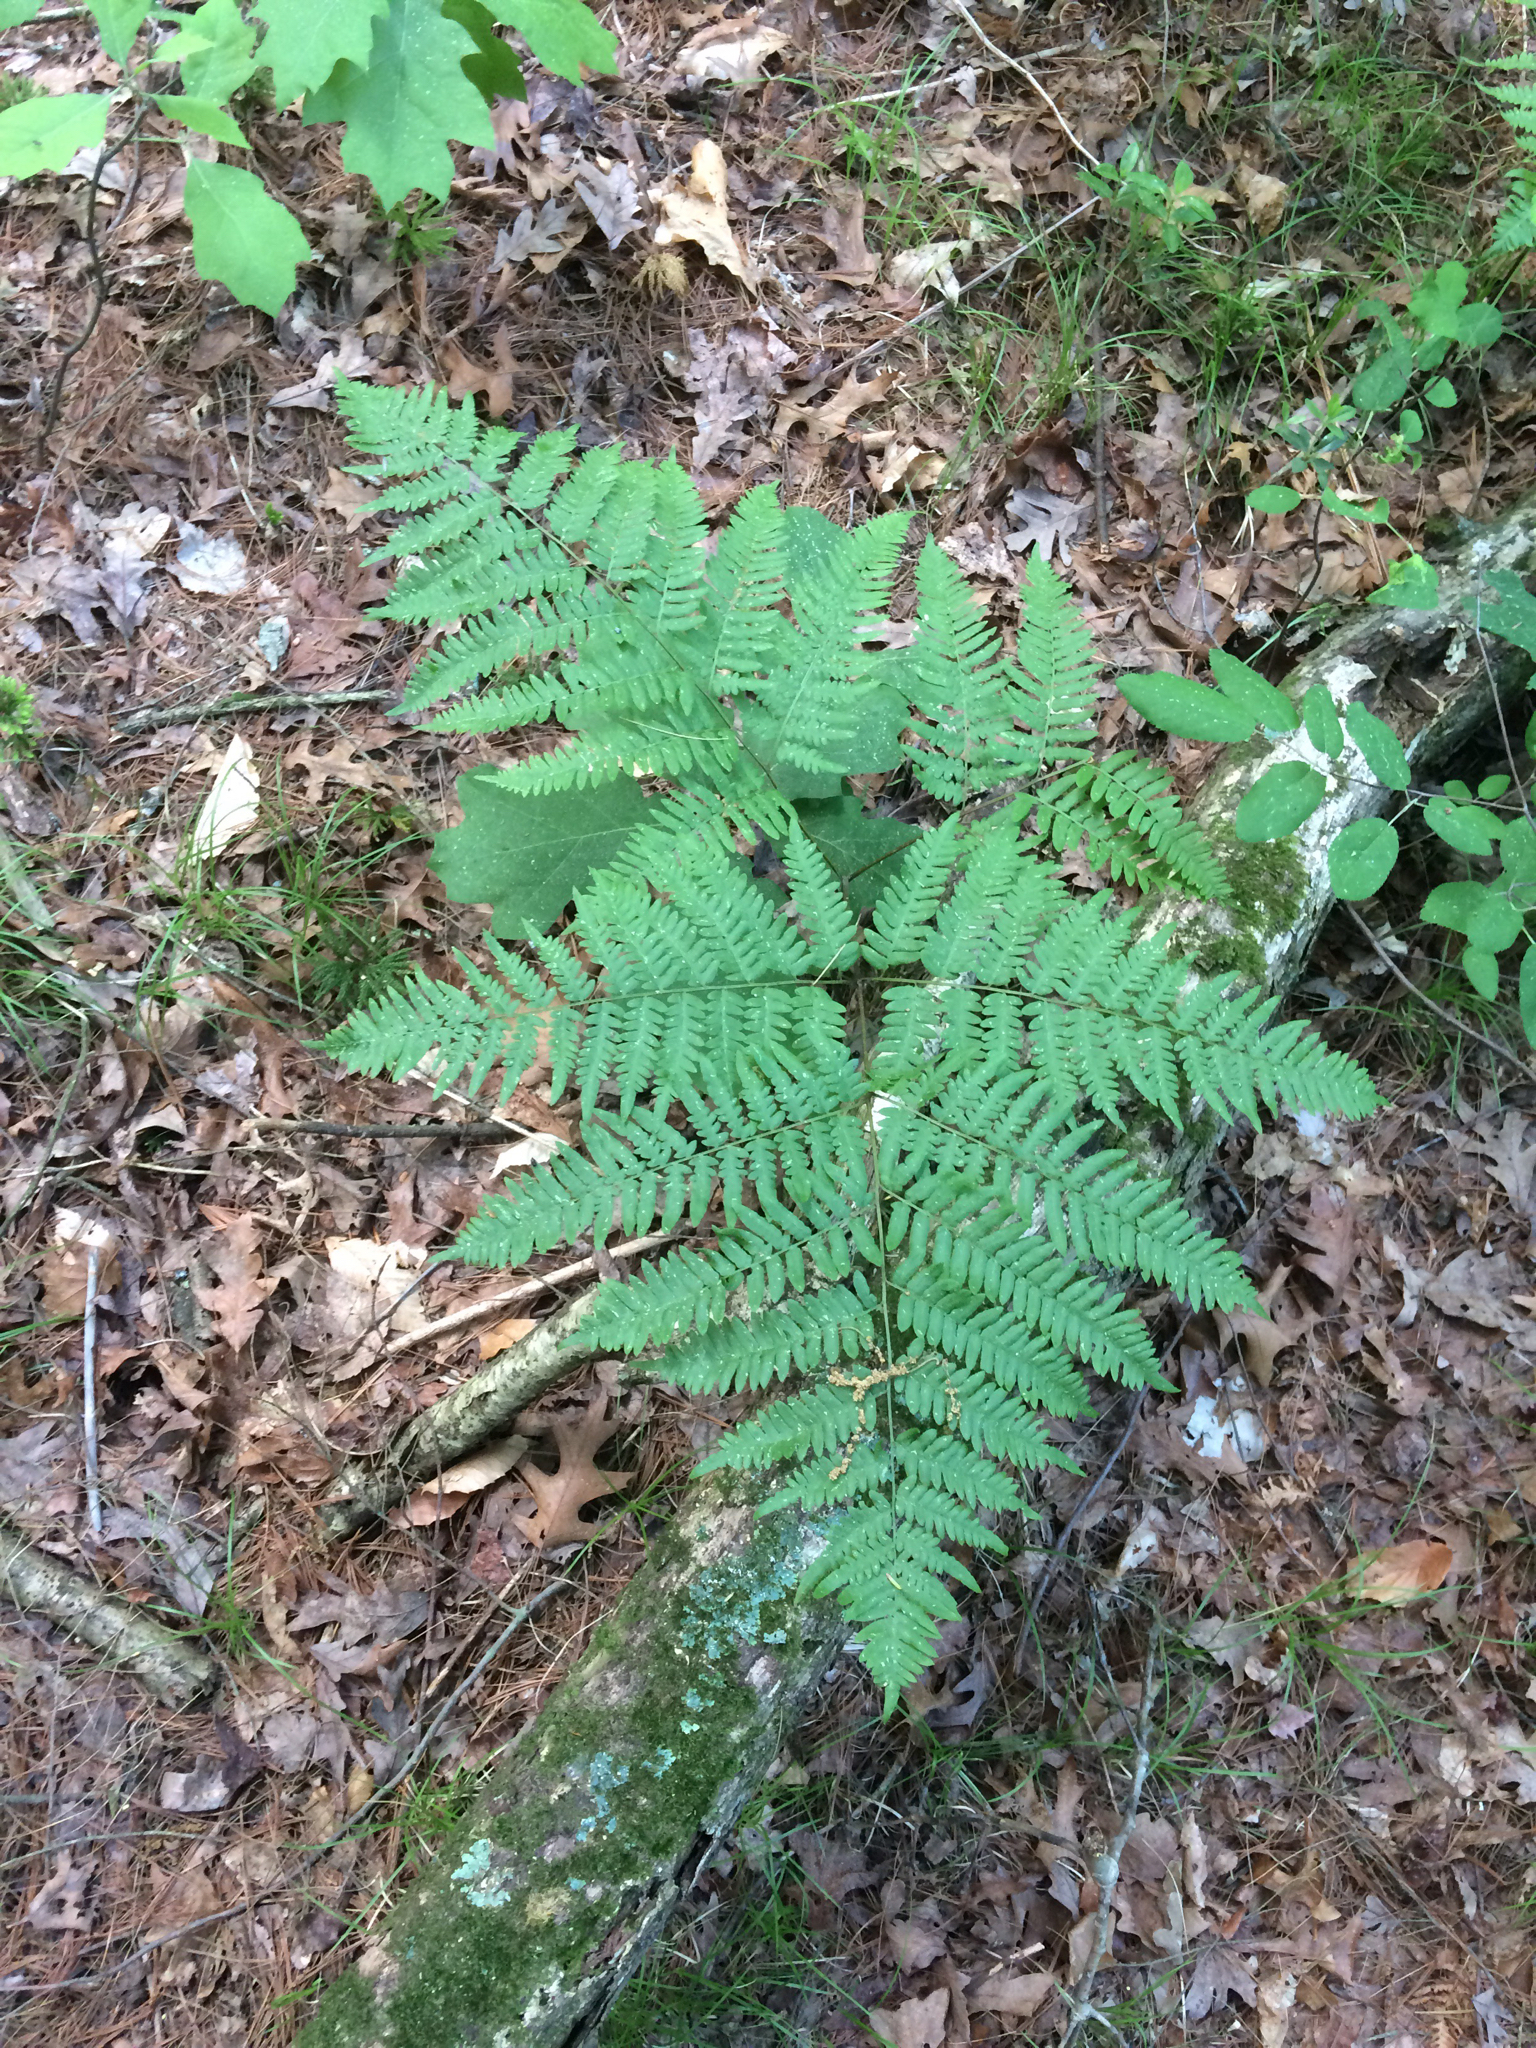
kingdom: Plantae
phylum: Tracheophyta
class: Polypodiopsida
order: Polypodiales
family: Dennstaedtiaceae
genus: Pteridium
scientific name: Pteridium aquilinum
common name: Bracken
